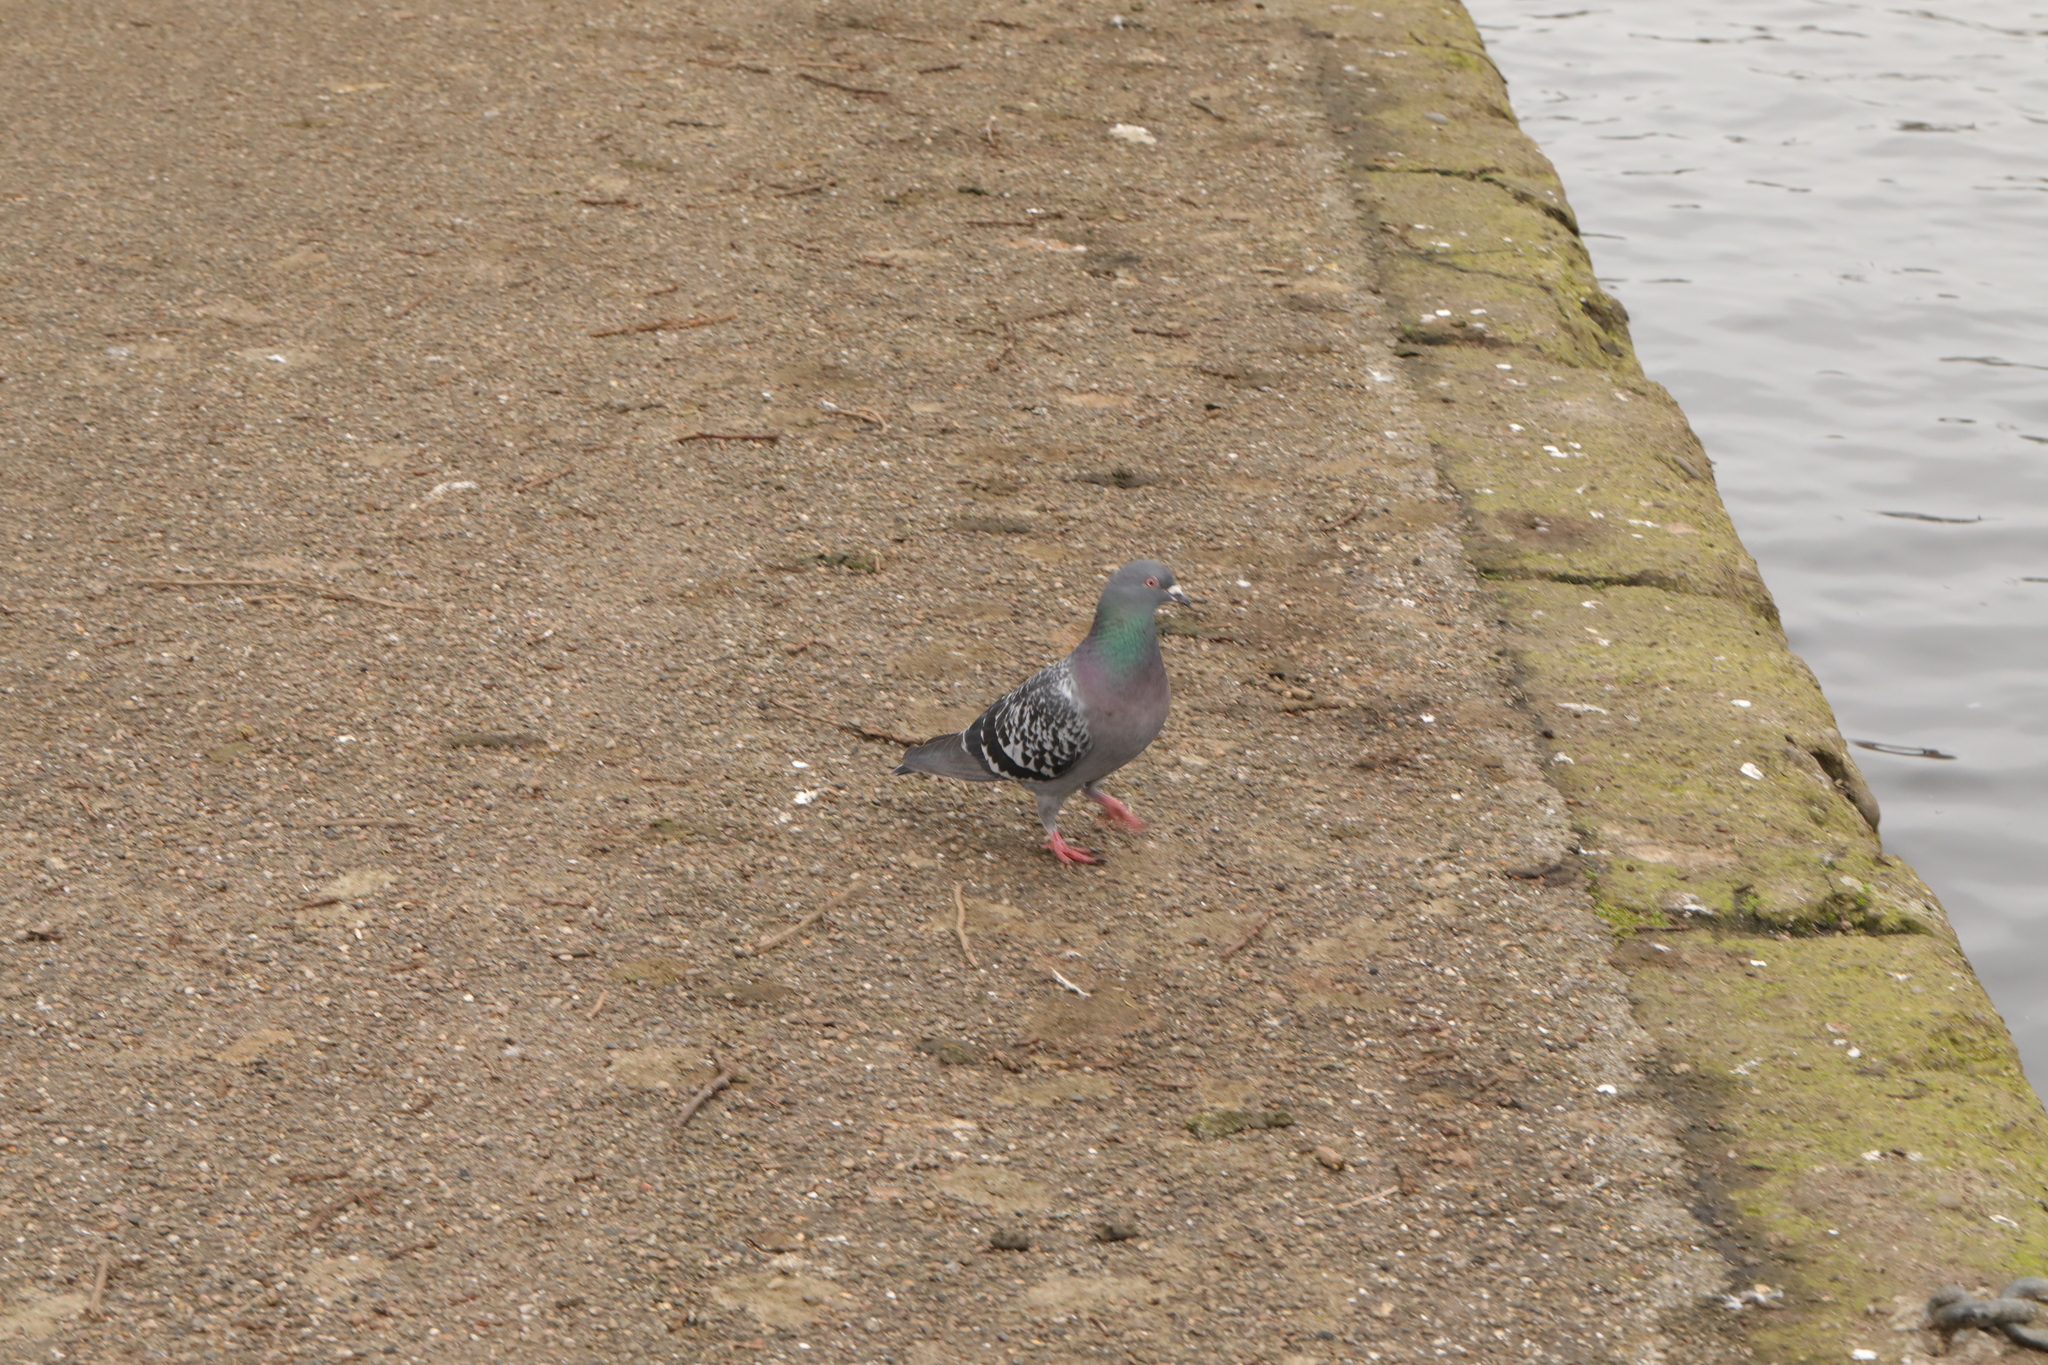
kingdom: Animalia
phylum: Chordata
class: Aves
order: Columbiformes
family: Columbidae
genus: Columba
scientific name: Columba livia
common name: Rock pigeon
